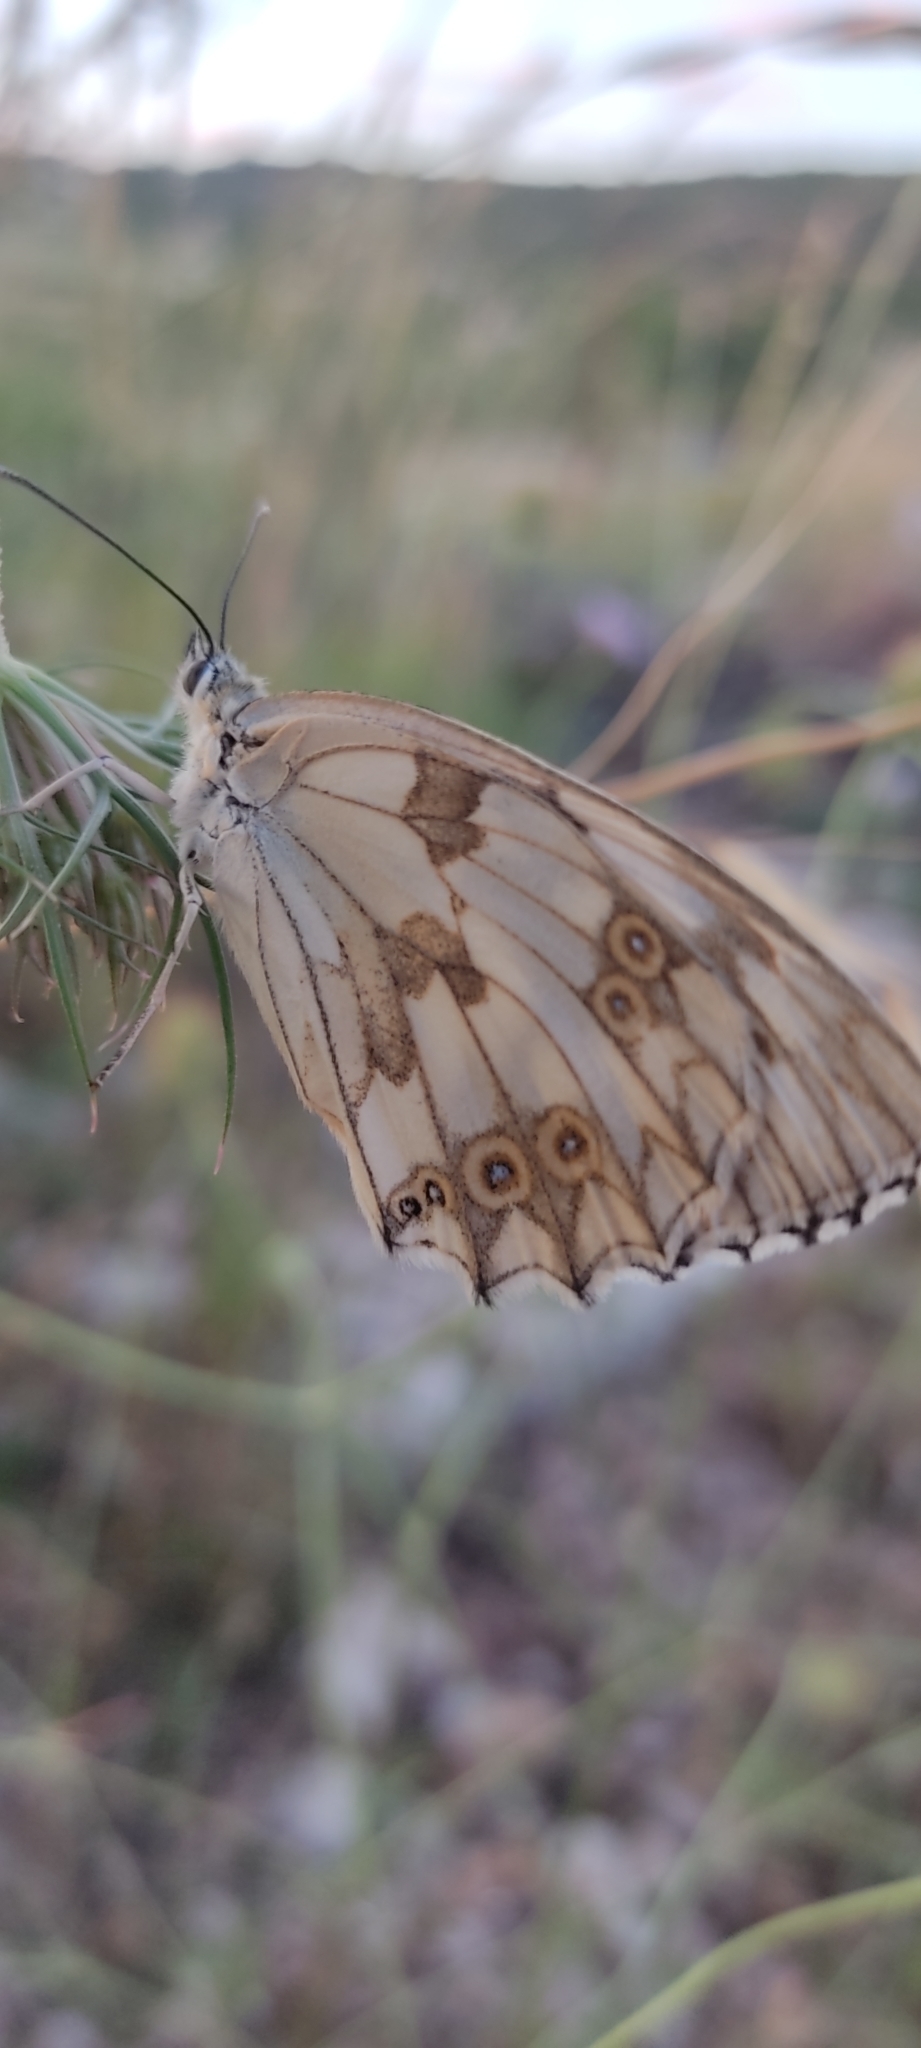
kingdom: Animalia
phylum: Arthropoda
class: Insecta
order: Lepidoptera
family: Nymphalidae
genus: Melanargia
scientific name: Melanargia lachesis
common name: Iberian marbled white
